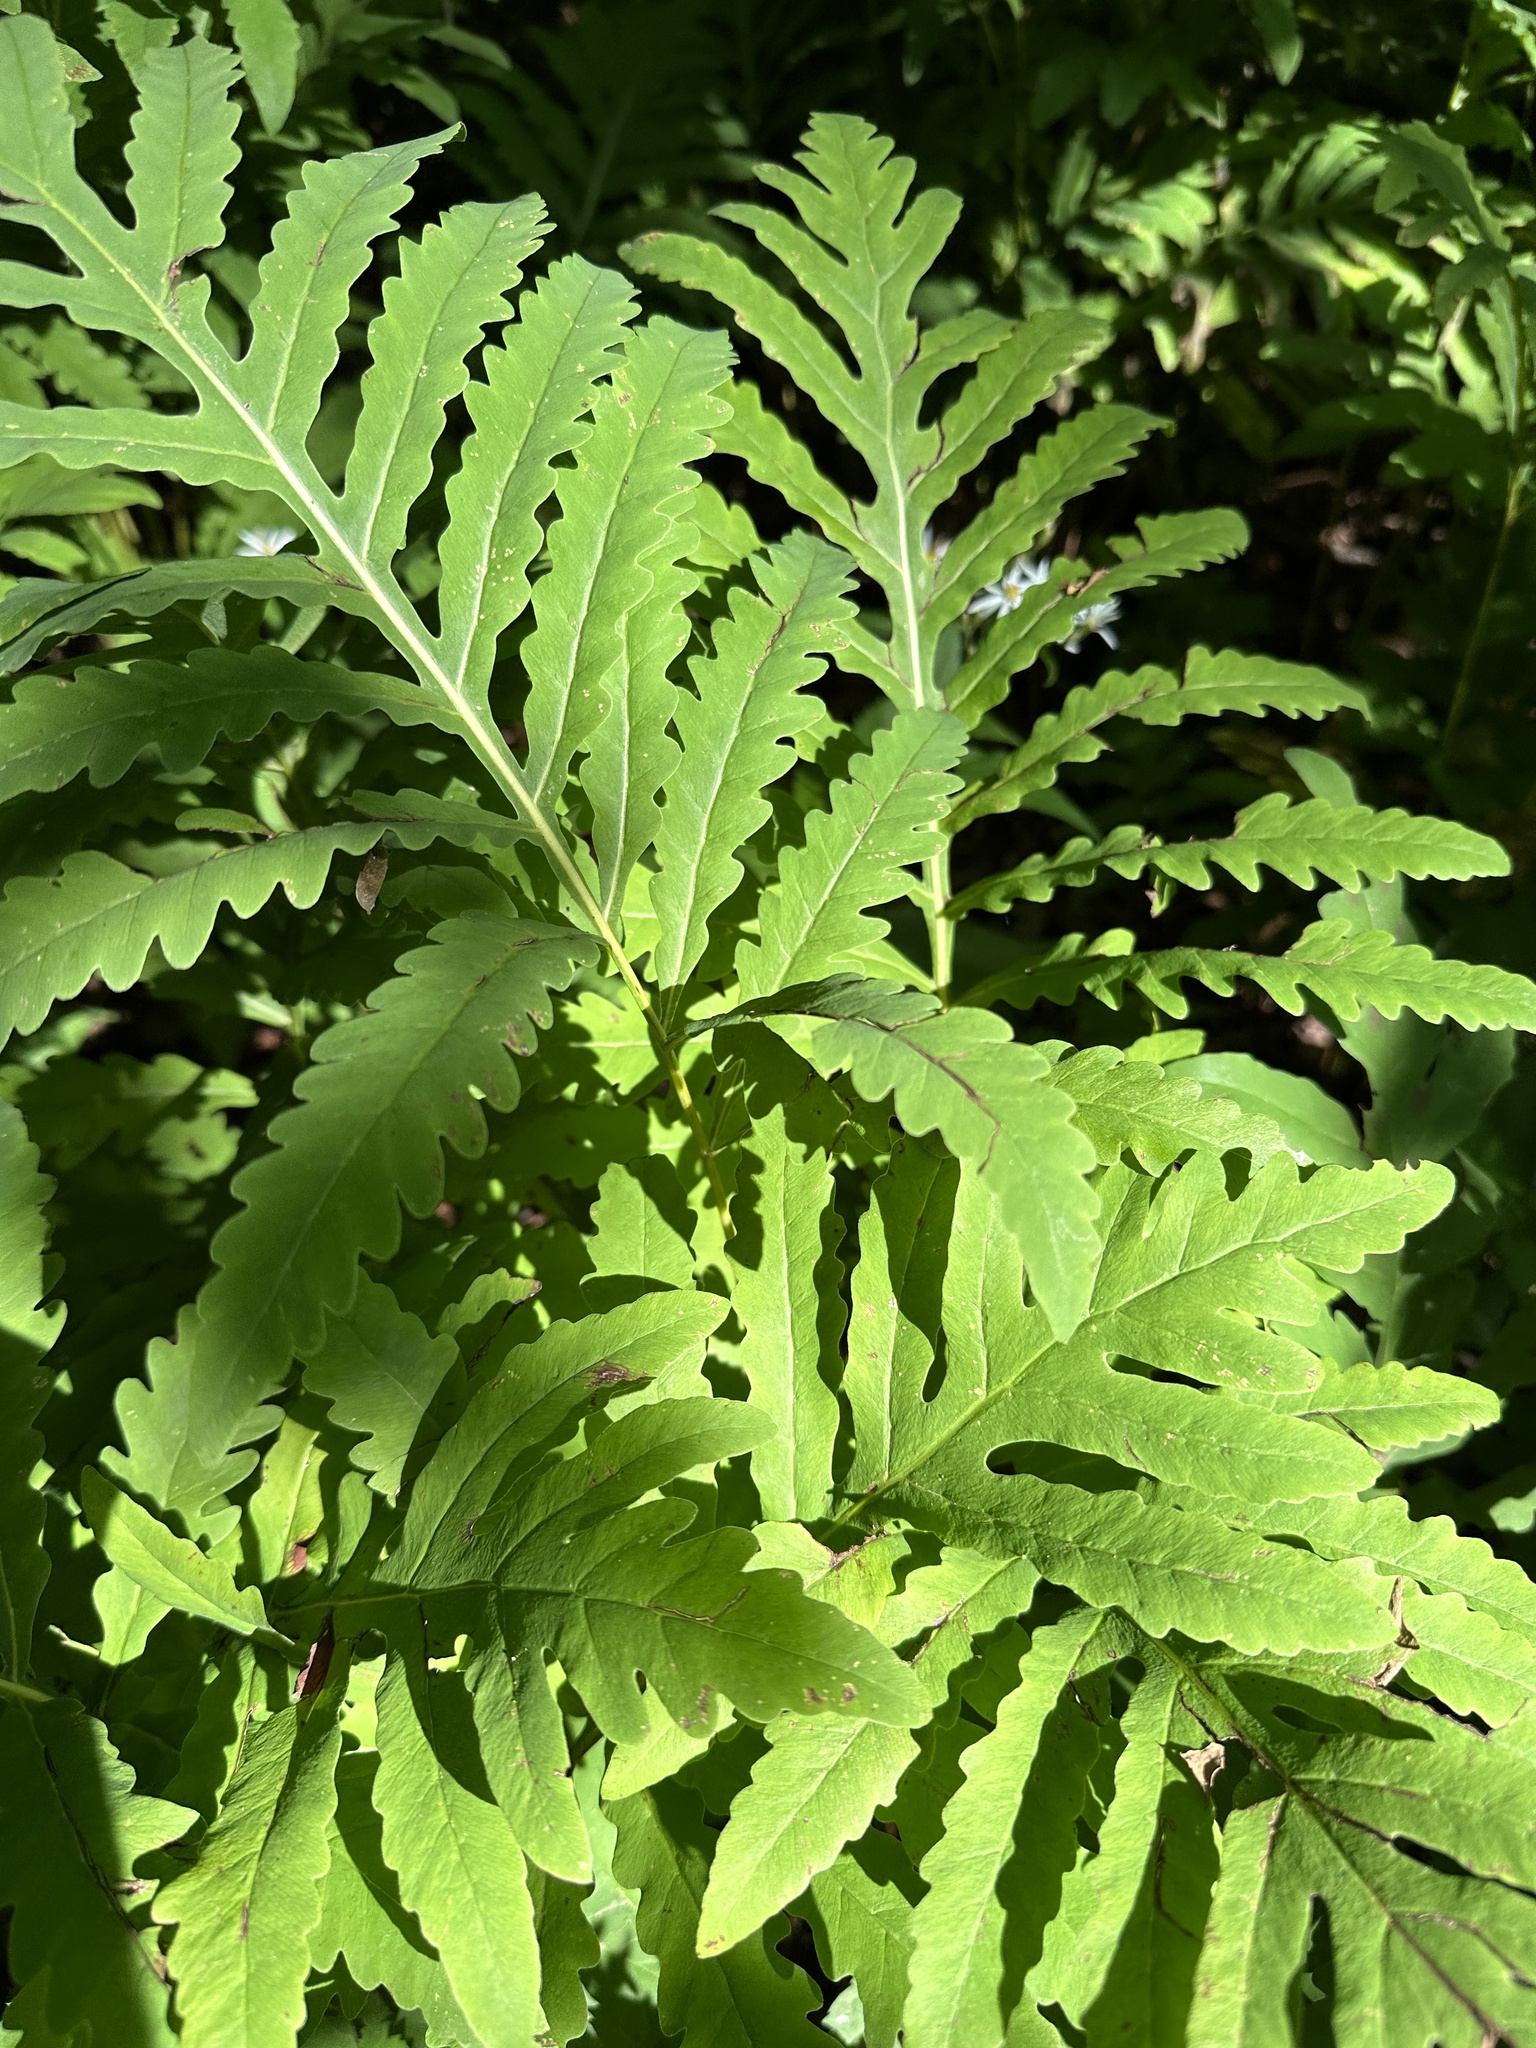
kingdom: Plantae
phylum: Tracheophyta
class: Polypodiopsida
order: Polypodiales
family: Onocleaceae
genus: Onoclea
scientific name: Onoclea sensibilis
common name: Sensitive fern
